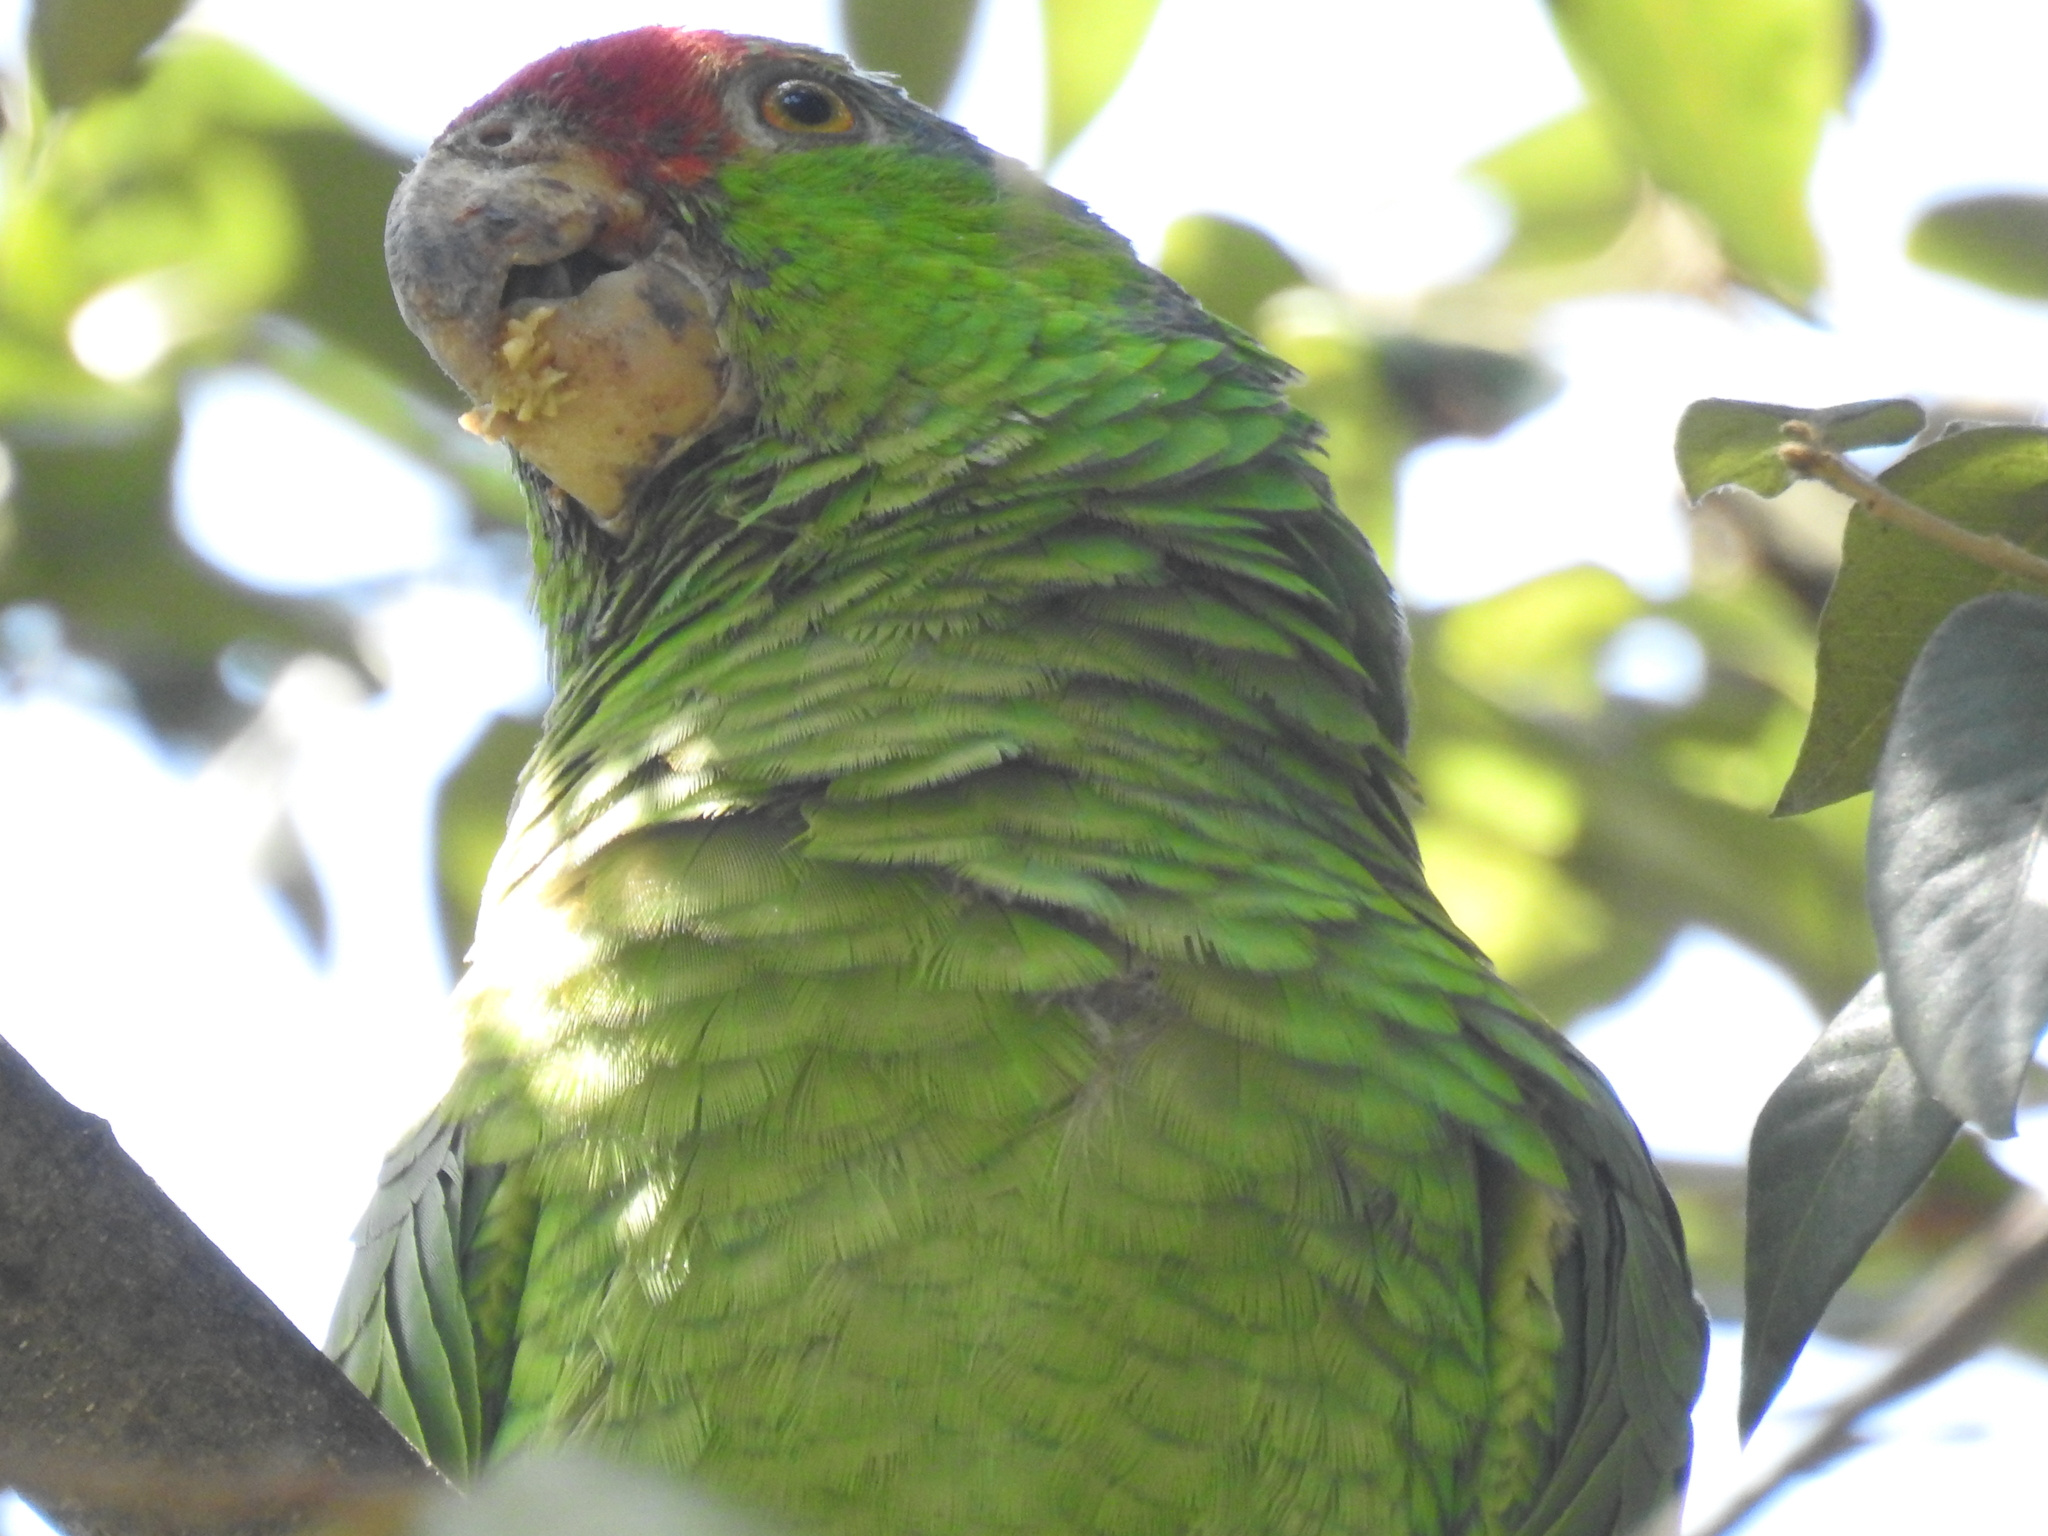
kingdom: Animalia
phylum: Chordata
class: Aves
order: Psittaciformes
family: Psittacidae
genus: Amazona
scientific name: Amazona viridigenalis
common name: Red-crowned amazon
